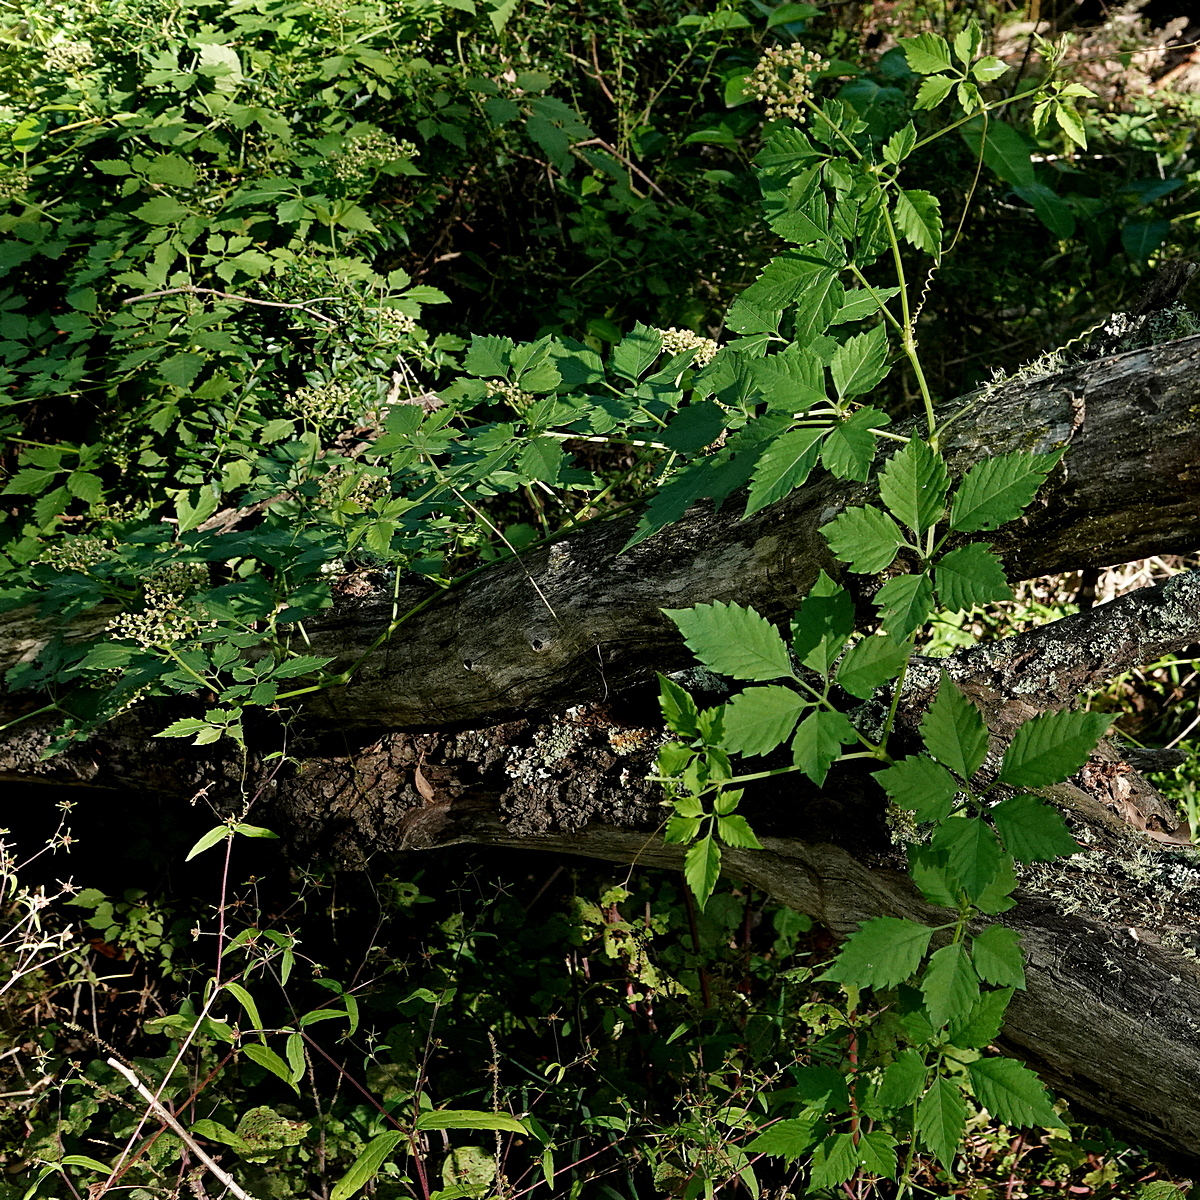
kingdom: Plantae
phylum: Tracheophyta
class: Magnoliopsida
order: Vitales
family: Vitaceae
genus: Causonis
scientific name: Causonis clematidea
